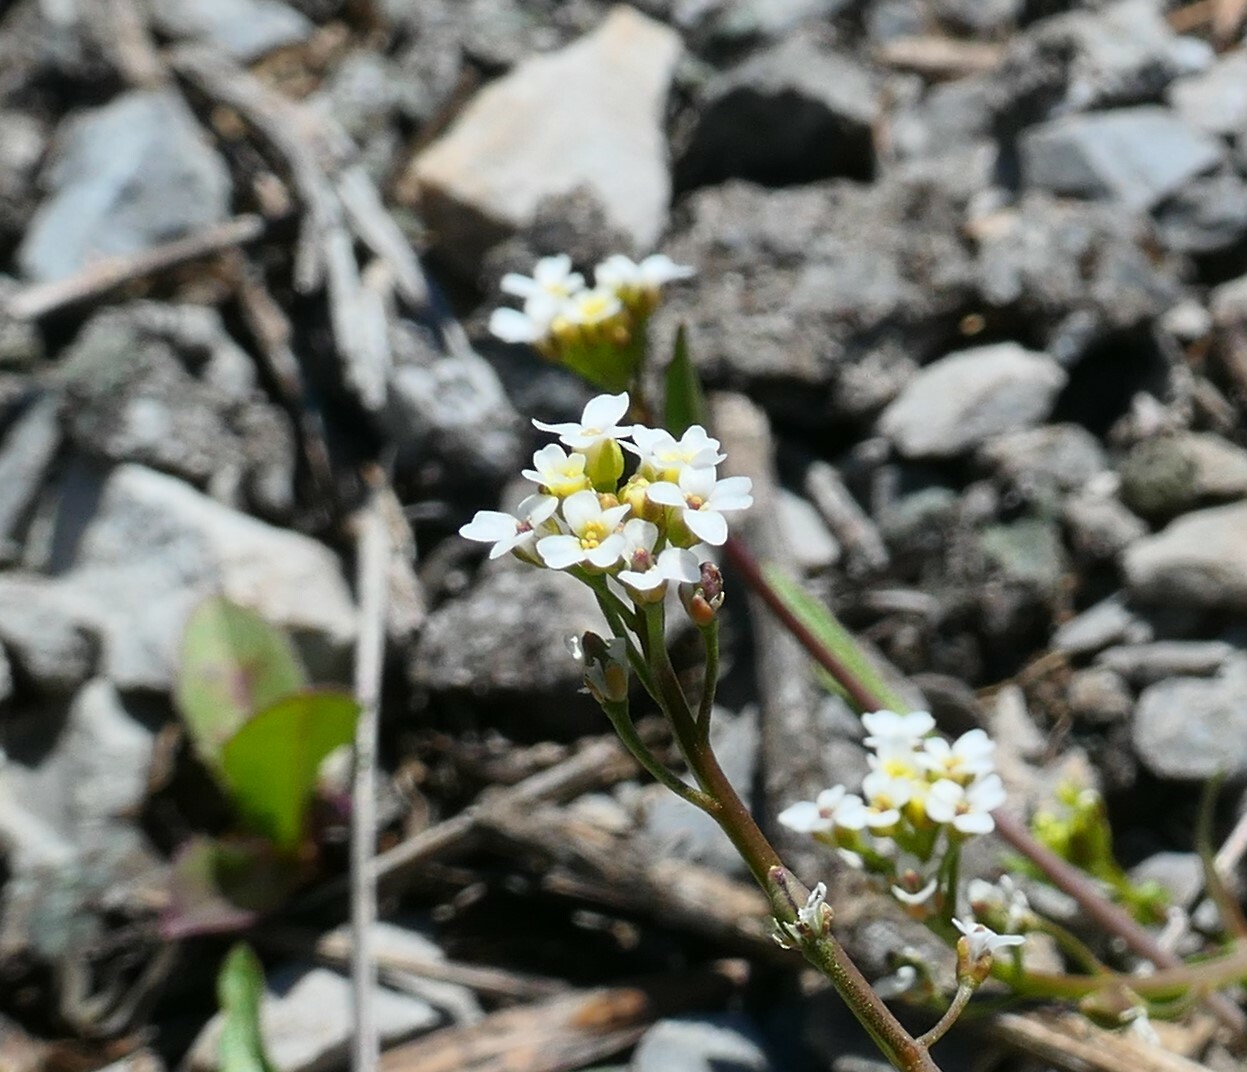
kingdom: Plantae
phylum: Tracheophyta
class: Magnoliopsida
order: Brassicales
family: Brassicaceae
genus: Calepina
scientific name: Calepina irregularis
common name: White ballmustard
